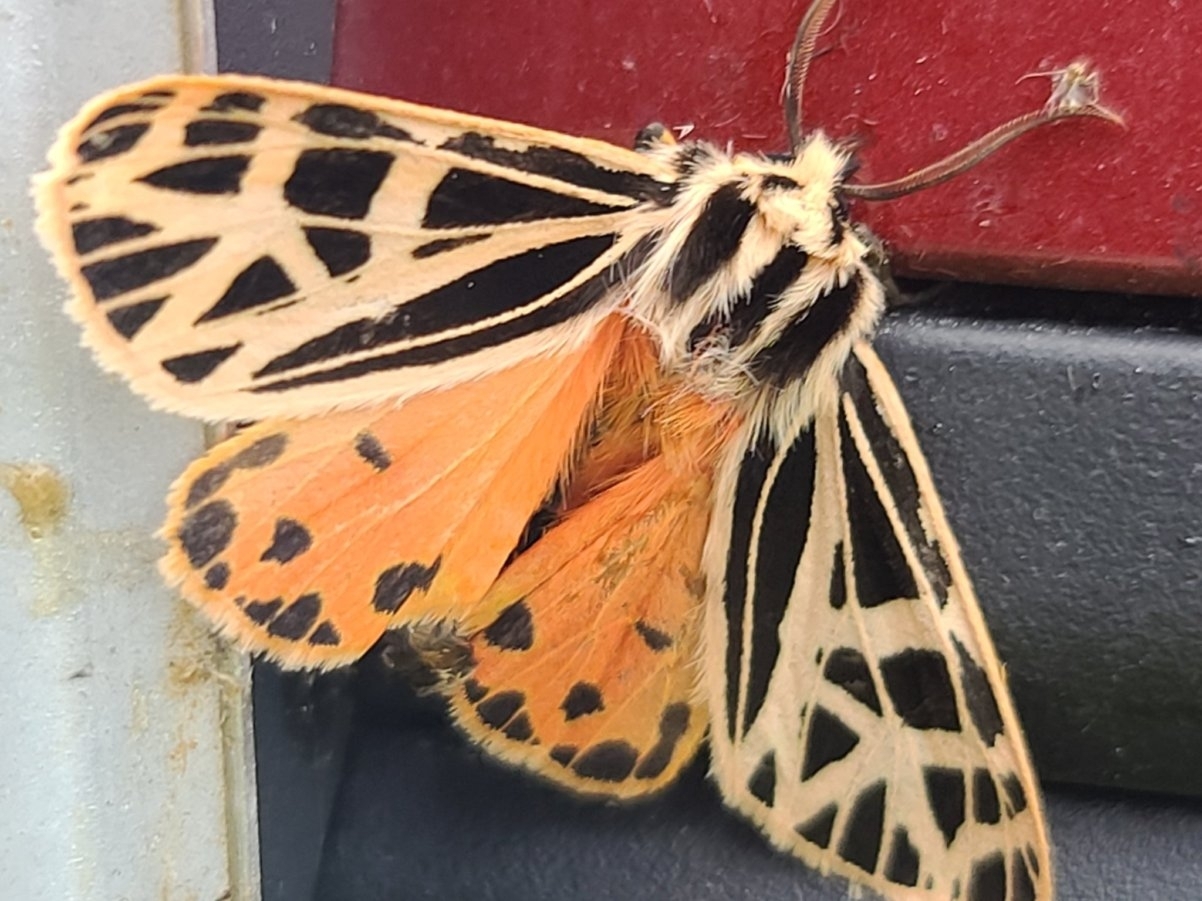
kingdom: Animalia
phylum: Arthropoda
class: Insecta
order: Lepidoptera
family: Erebidae
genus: Grammia
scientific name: Grammia parthenice
